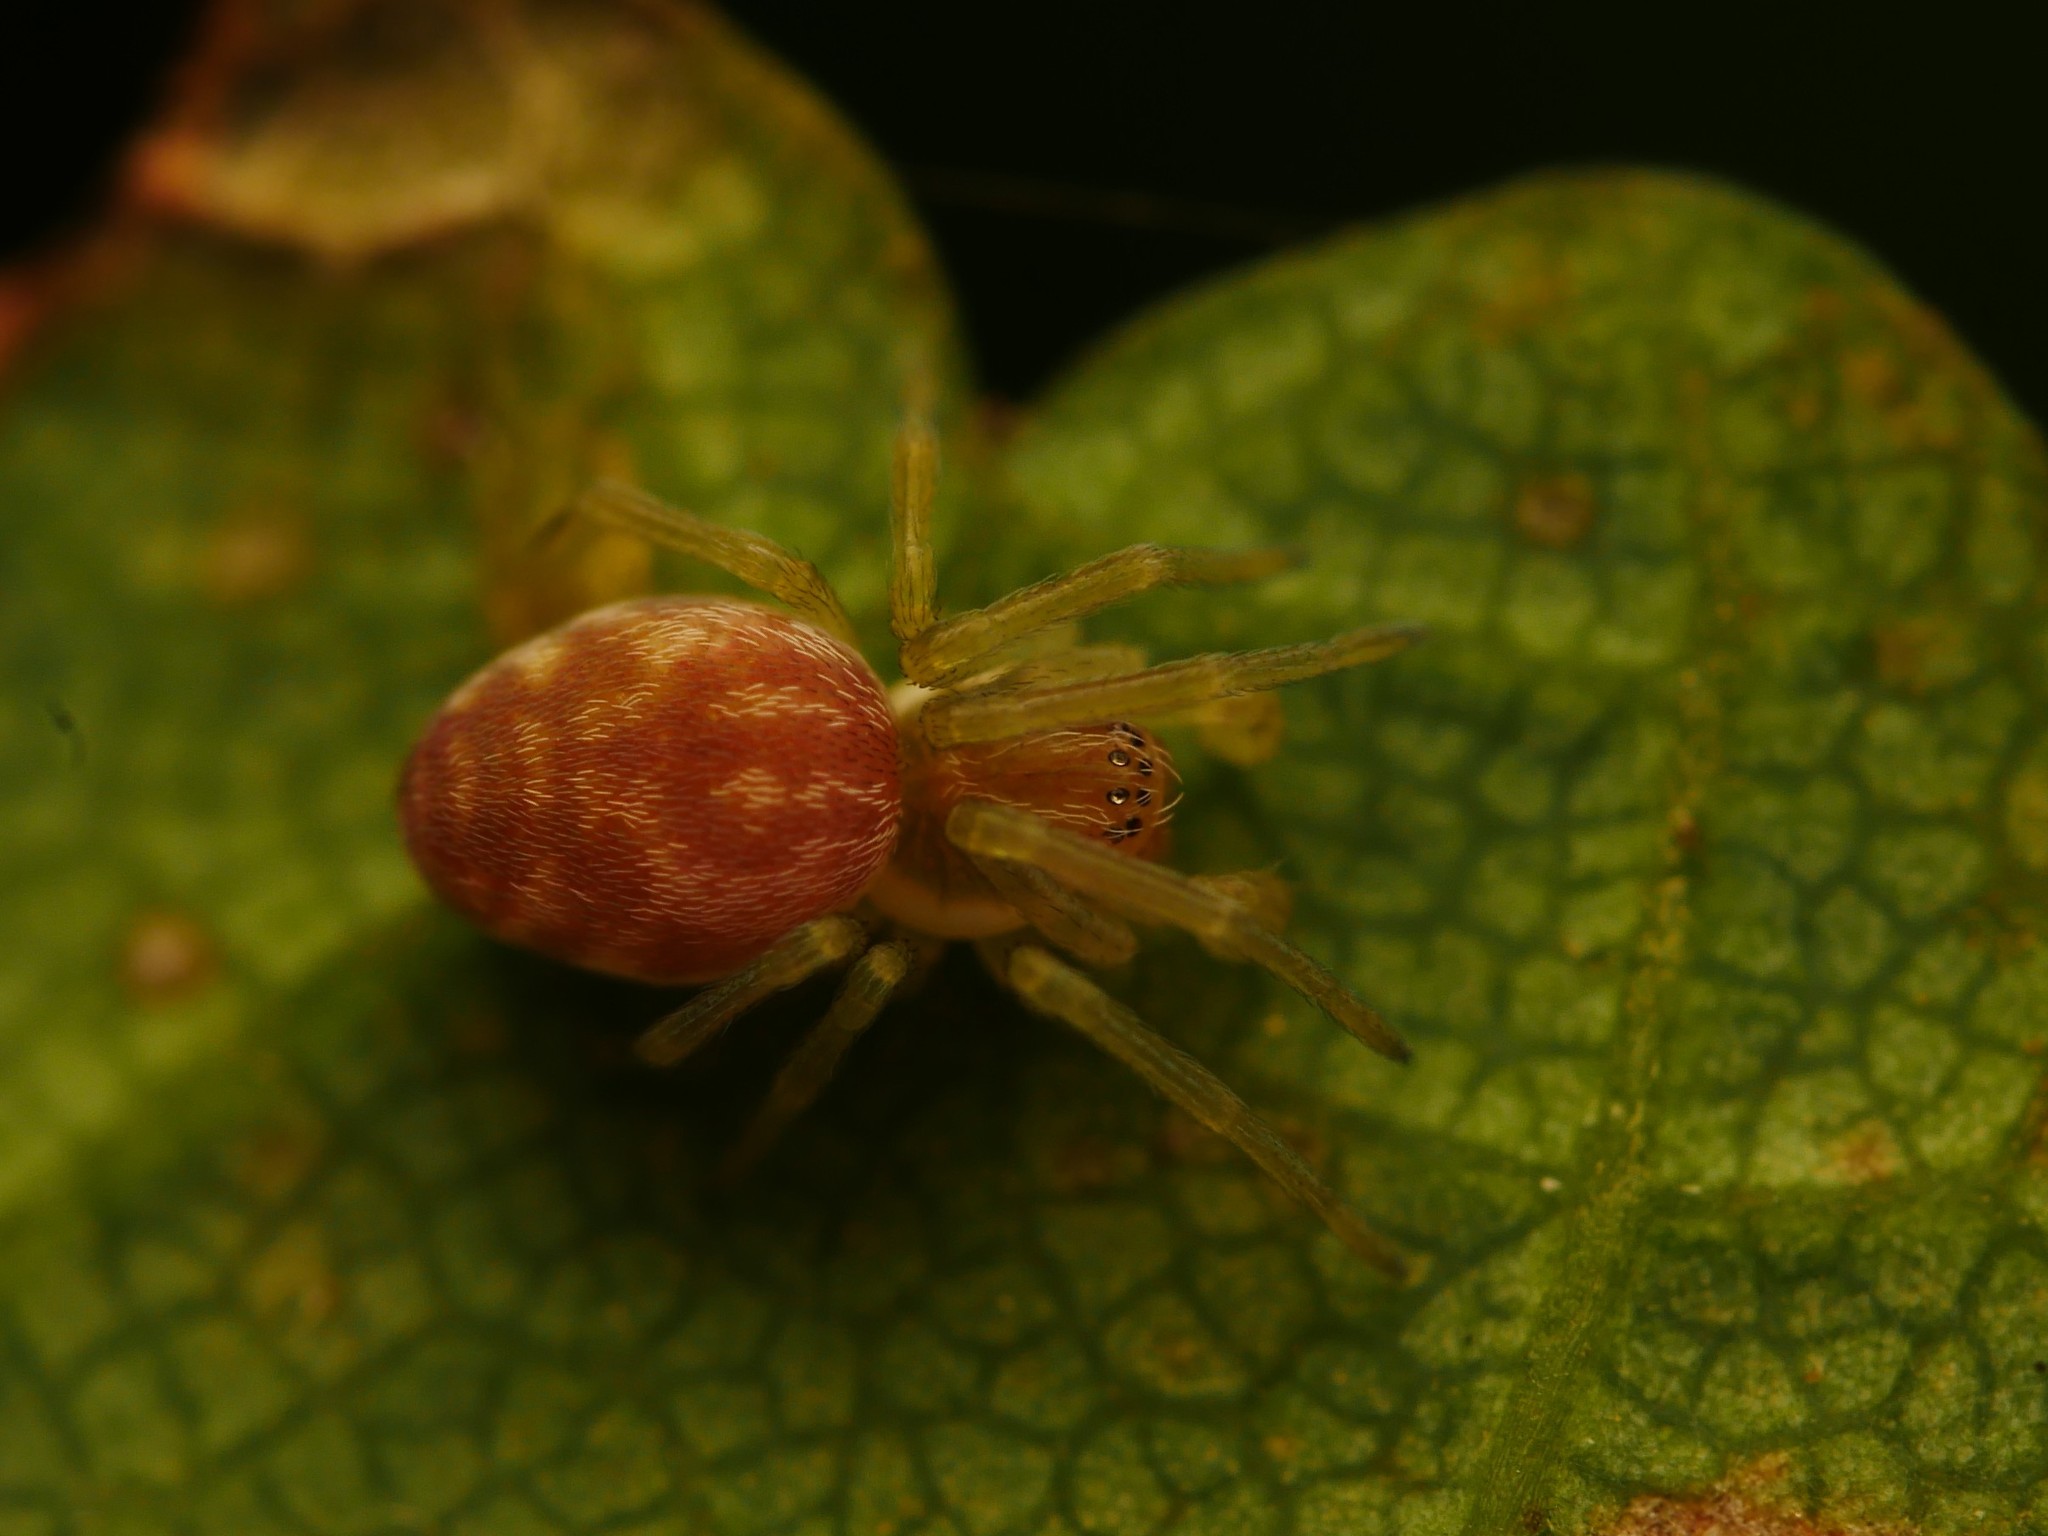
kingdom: Animalia
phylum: Arthropoda
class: Arachnida
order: Araneae
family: Dictynidae
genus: Nigma
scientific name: Nigma flavescens
